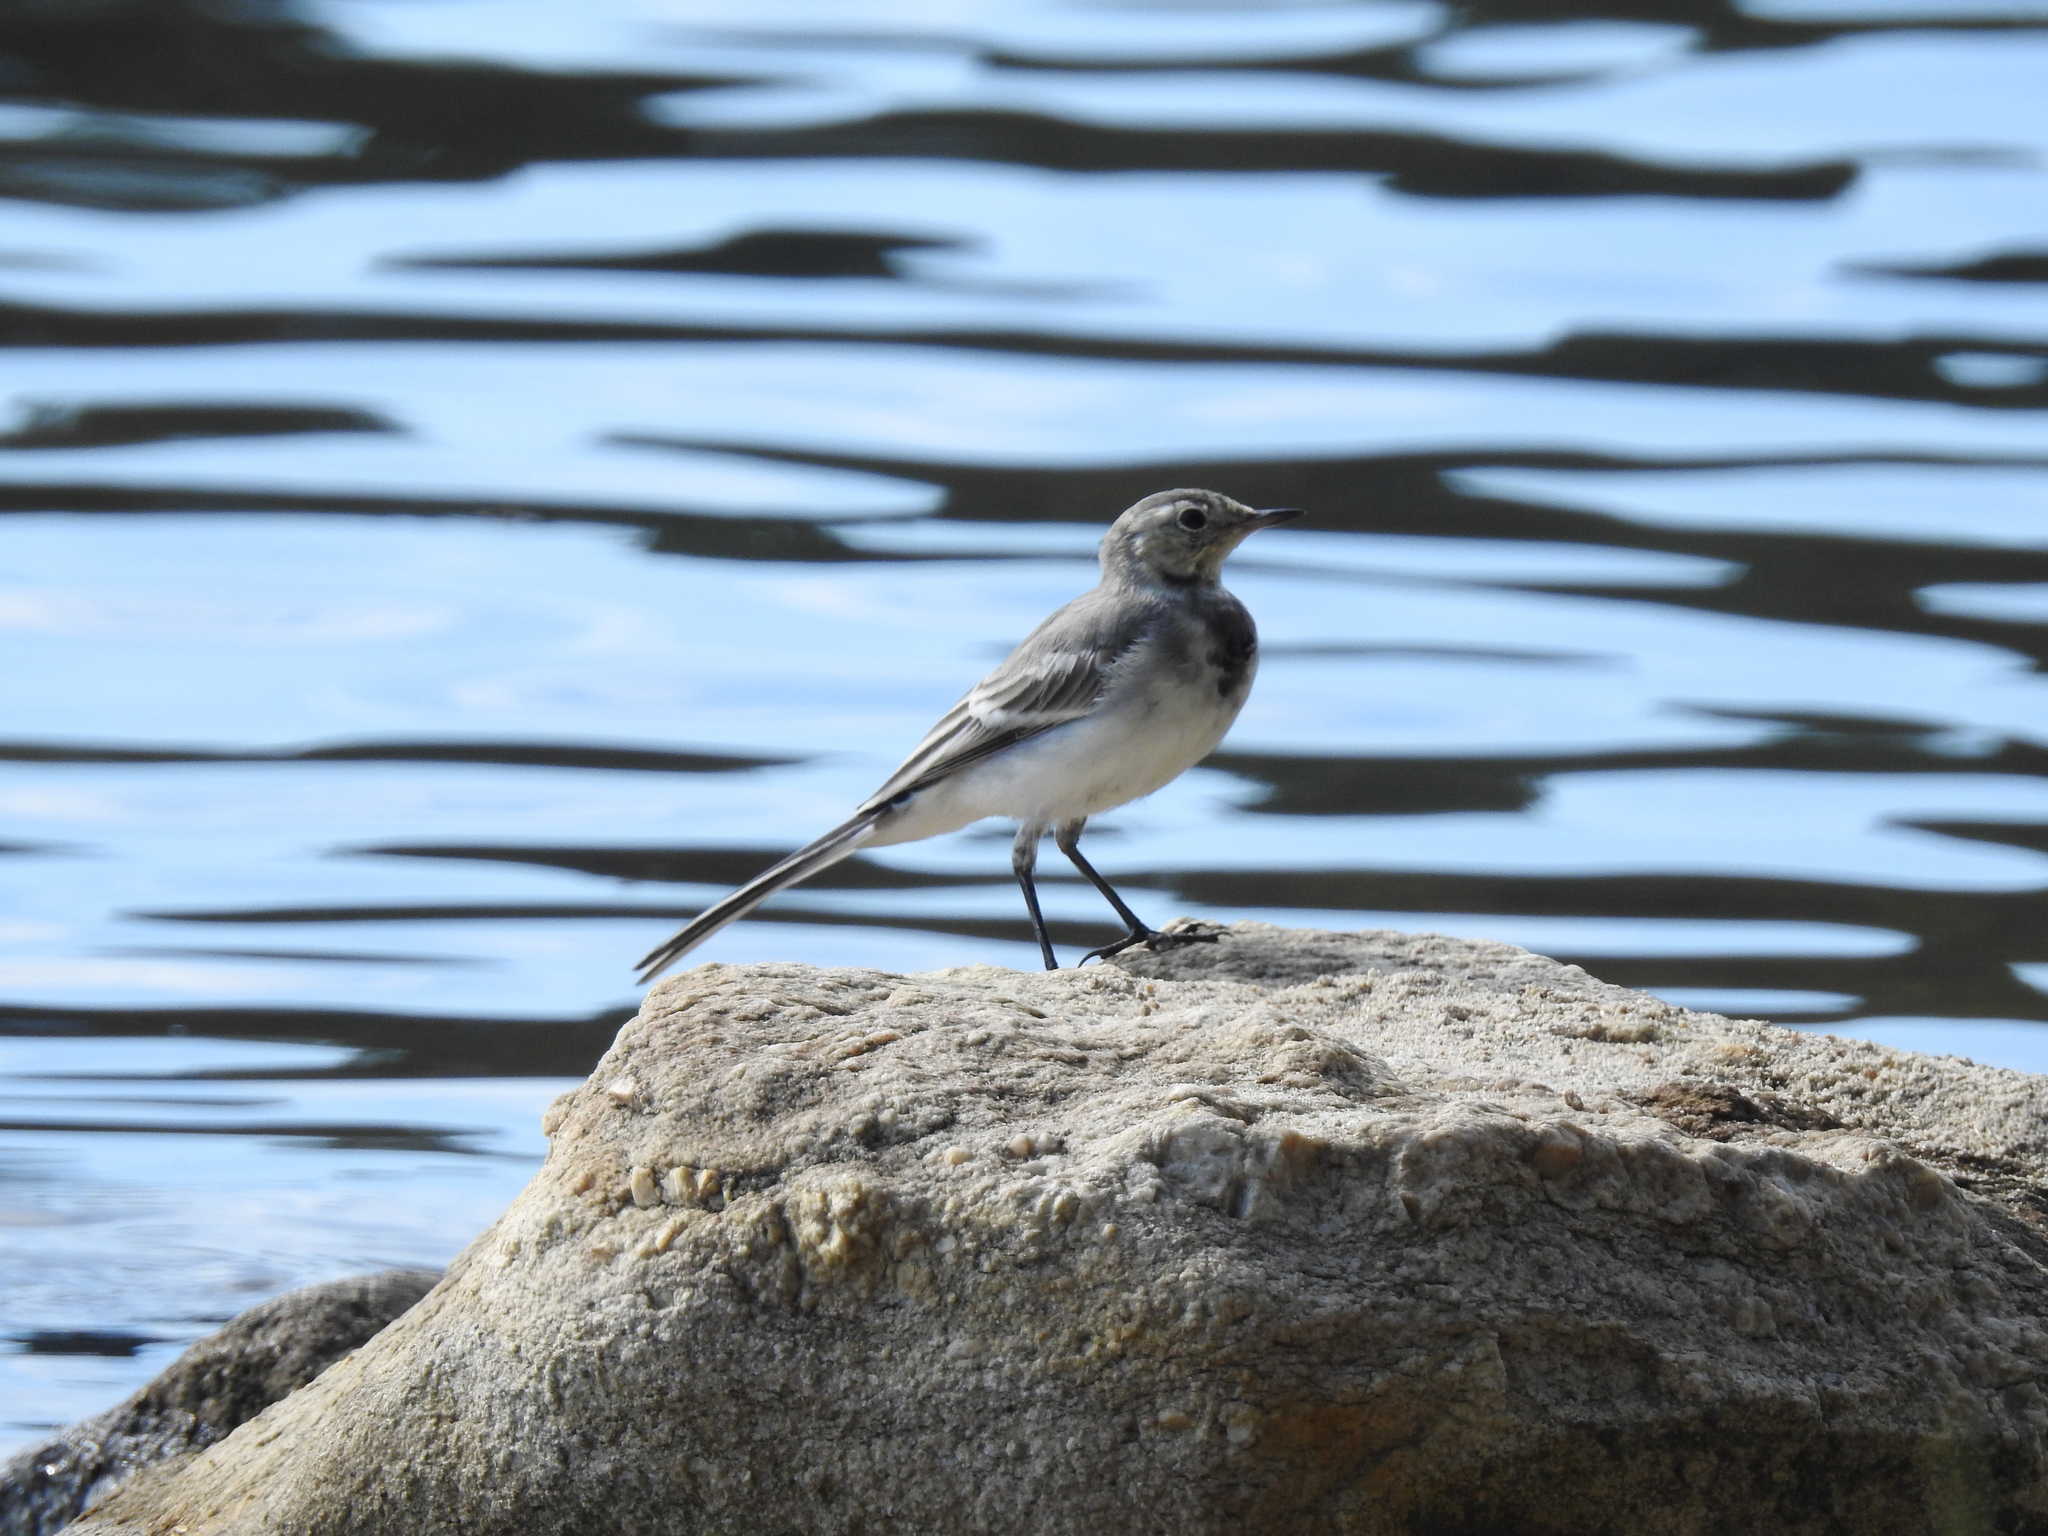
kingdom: Animalia
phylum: Chordata
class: Aves
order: Passeriformes
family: Motacillidae
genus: Motacilla
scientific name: Motacilla alba
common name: White wagtail
